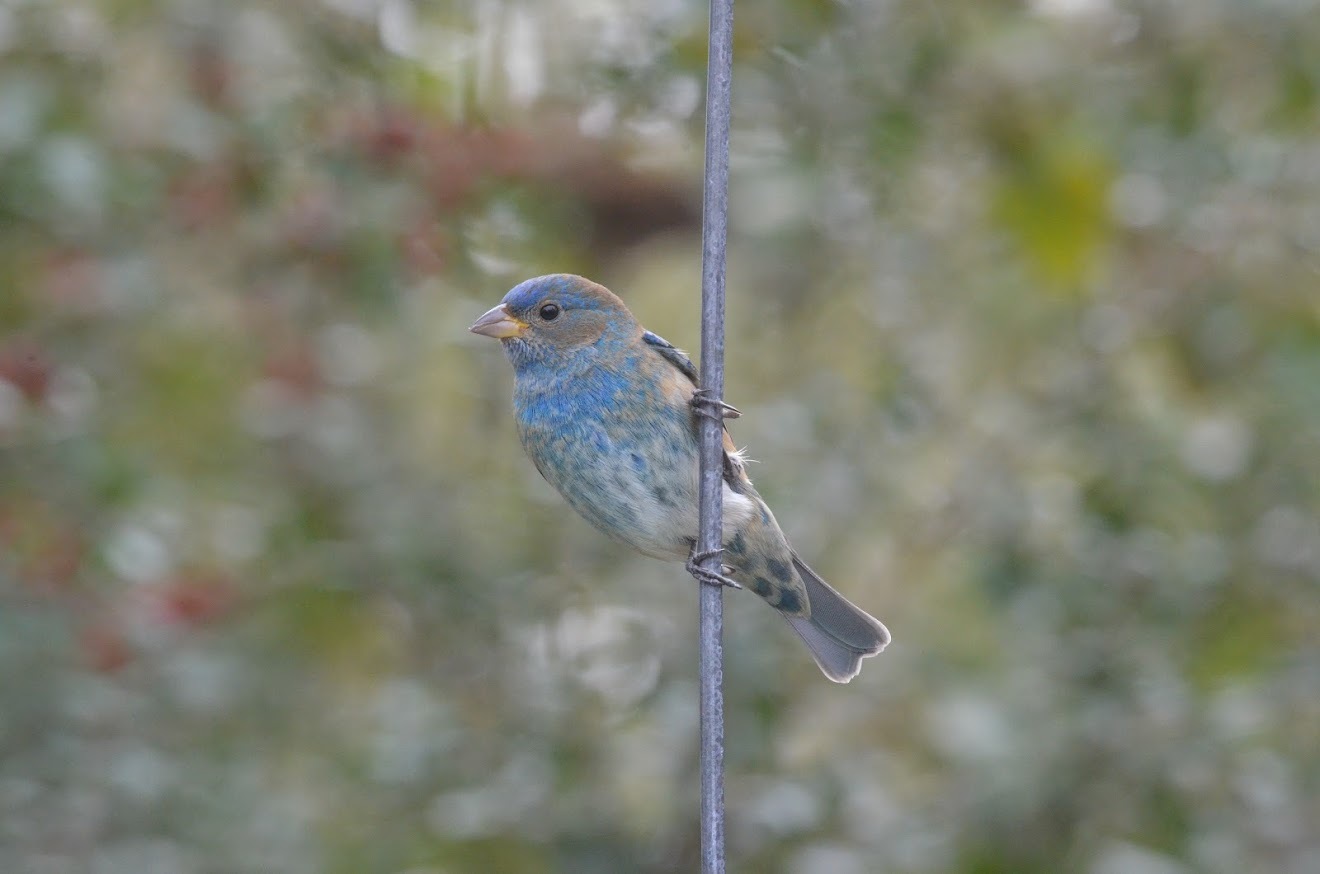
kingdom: Animalia
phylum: Chordata
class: Aves
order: Passeriformes
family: Cardinalidae
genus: Passerina
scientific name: Passerina cyanea
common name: Indigo bunting
